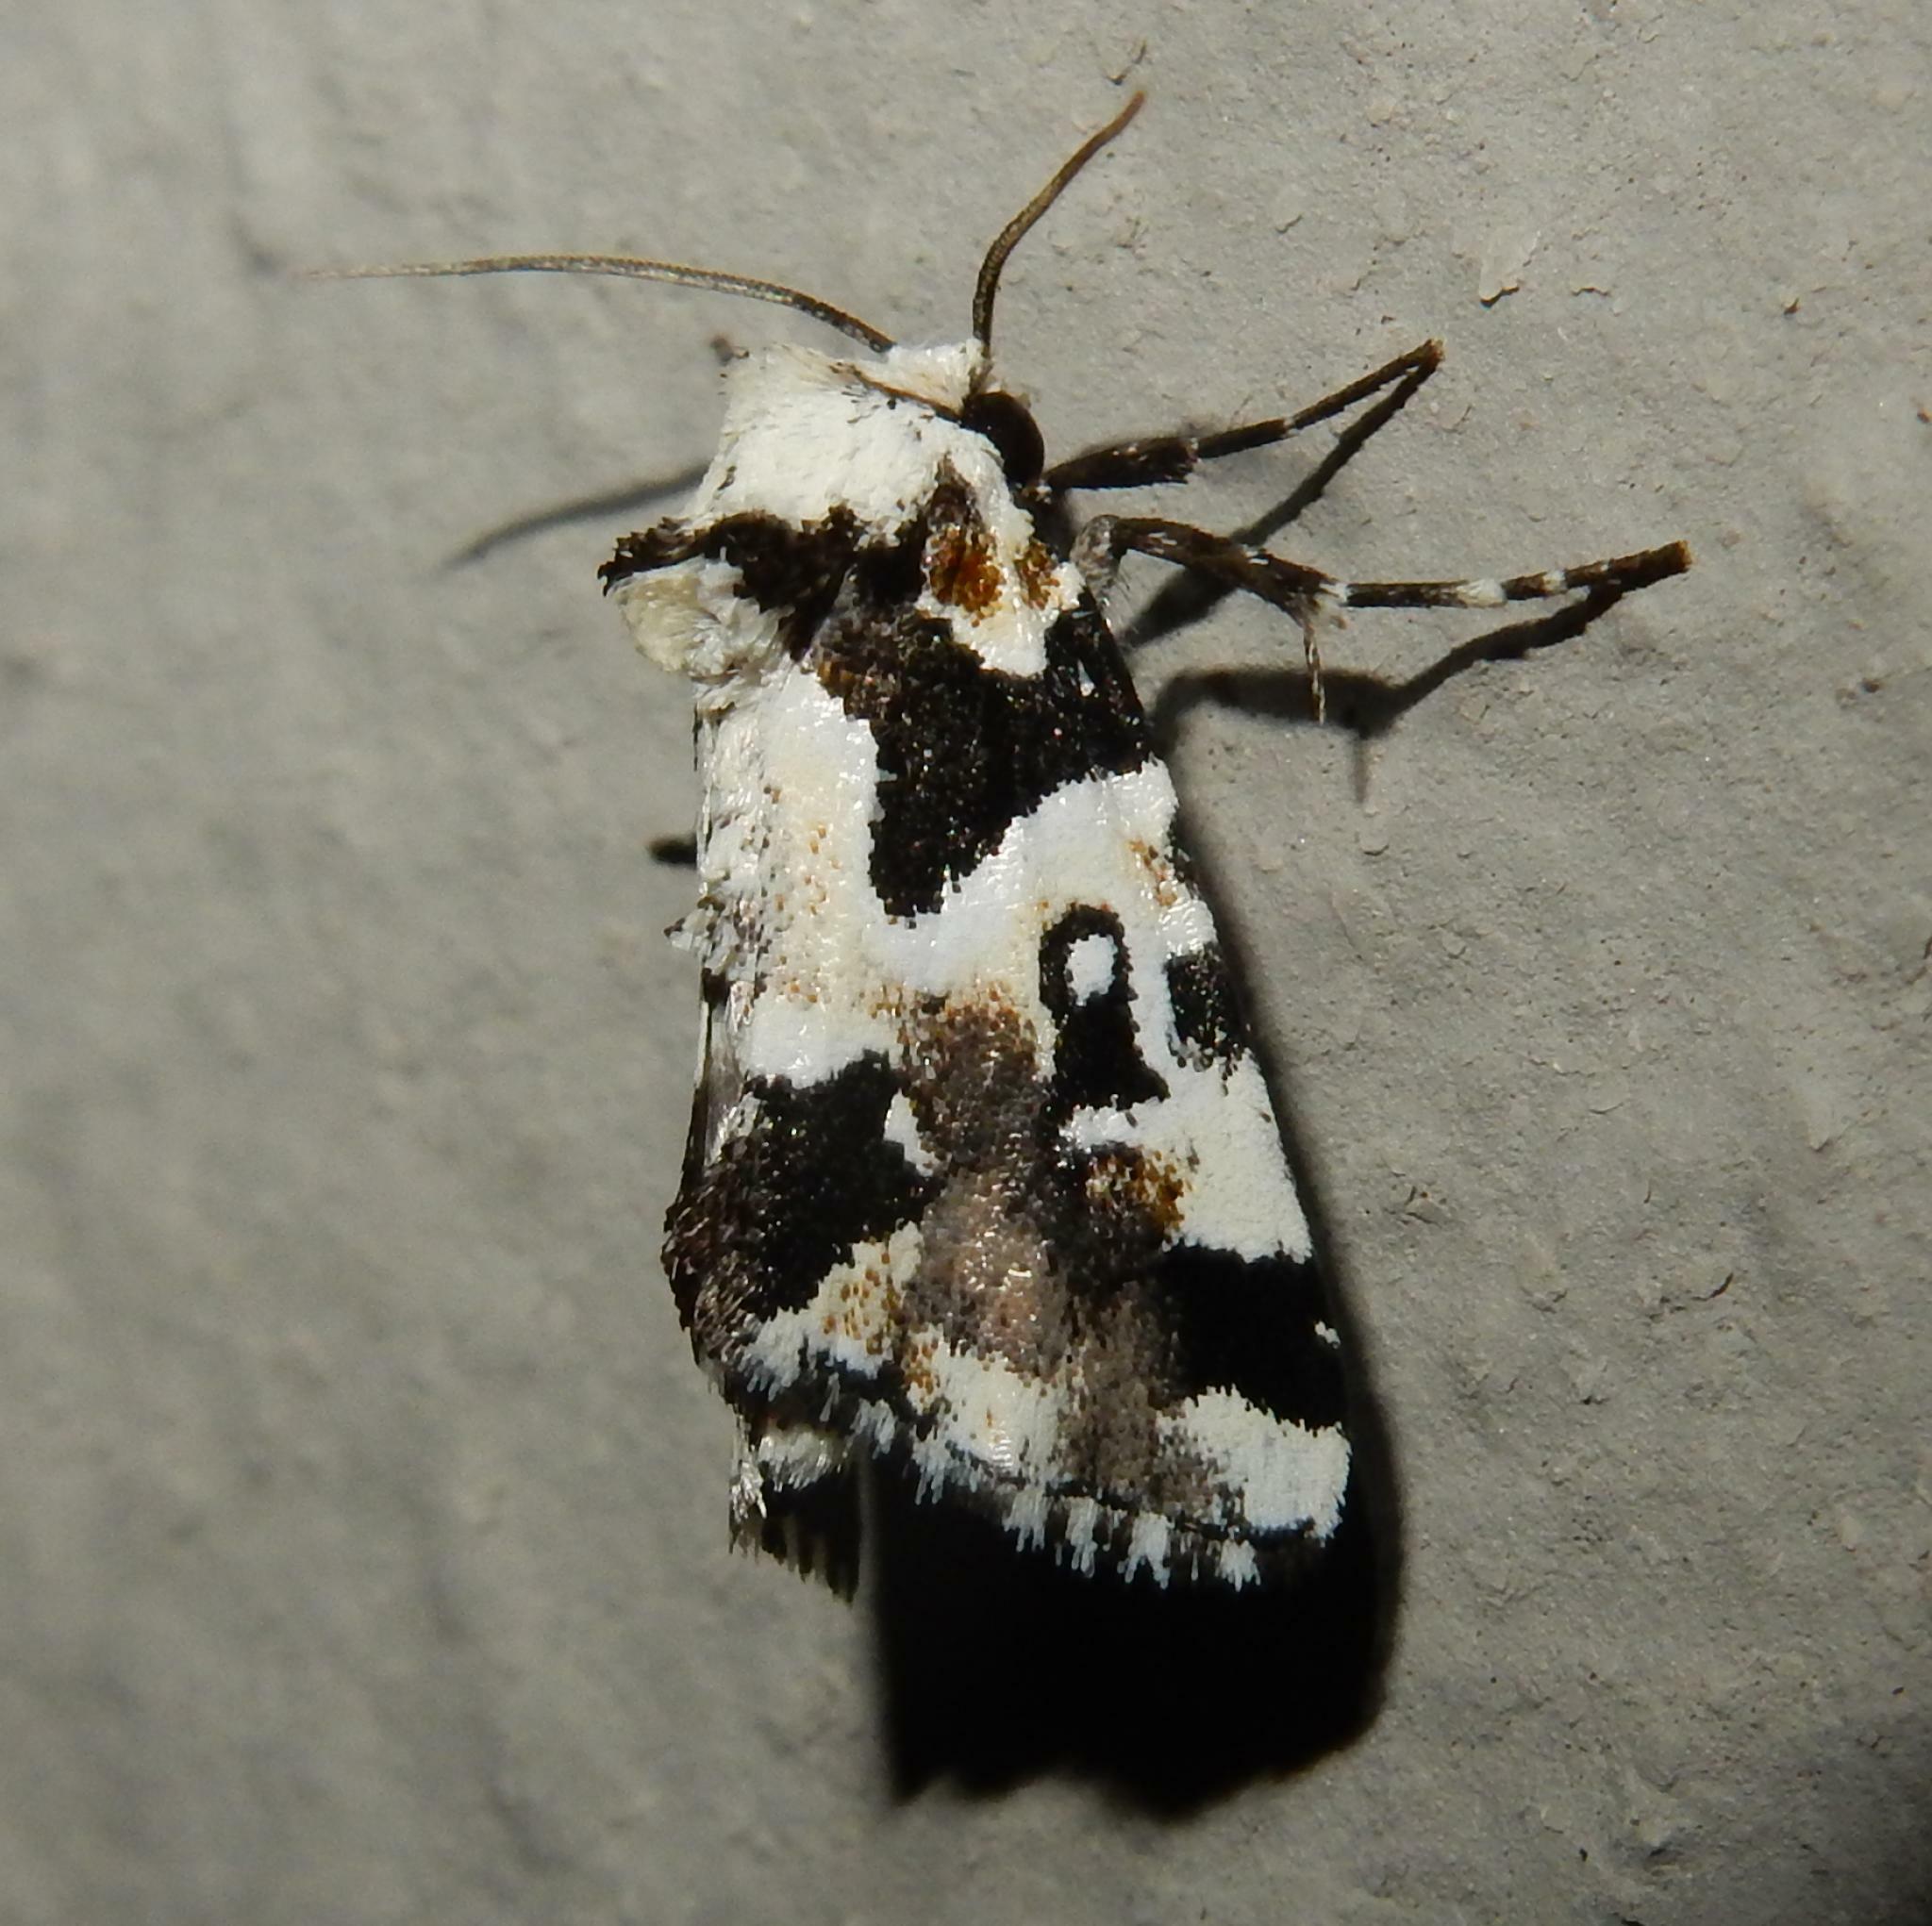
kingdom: Animalia
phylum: Arthropoda
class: Insecta
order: Lepidoptera
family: Noctuidae
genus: Leucotrachea
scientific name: Leucotrachea melanodonta
